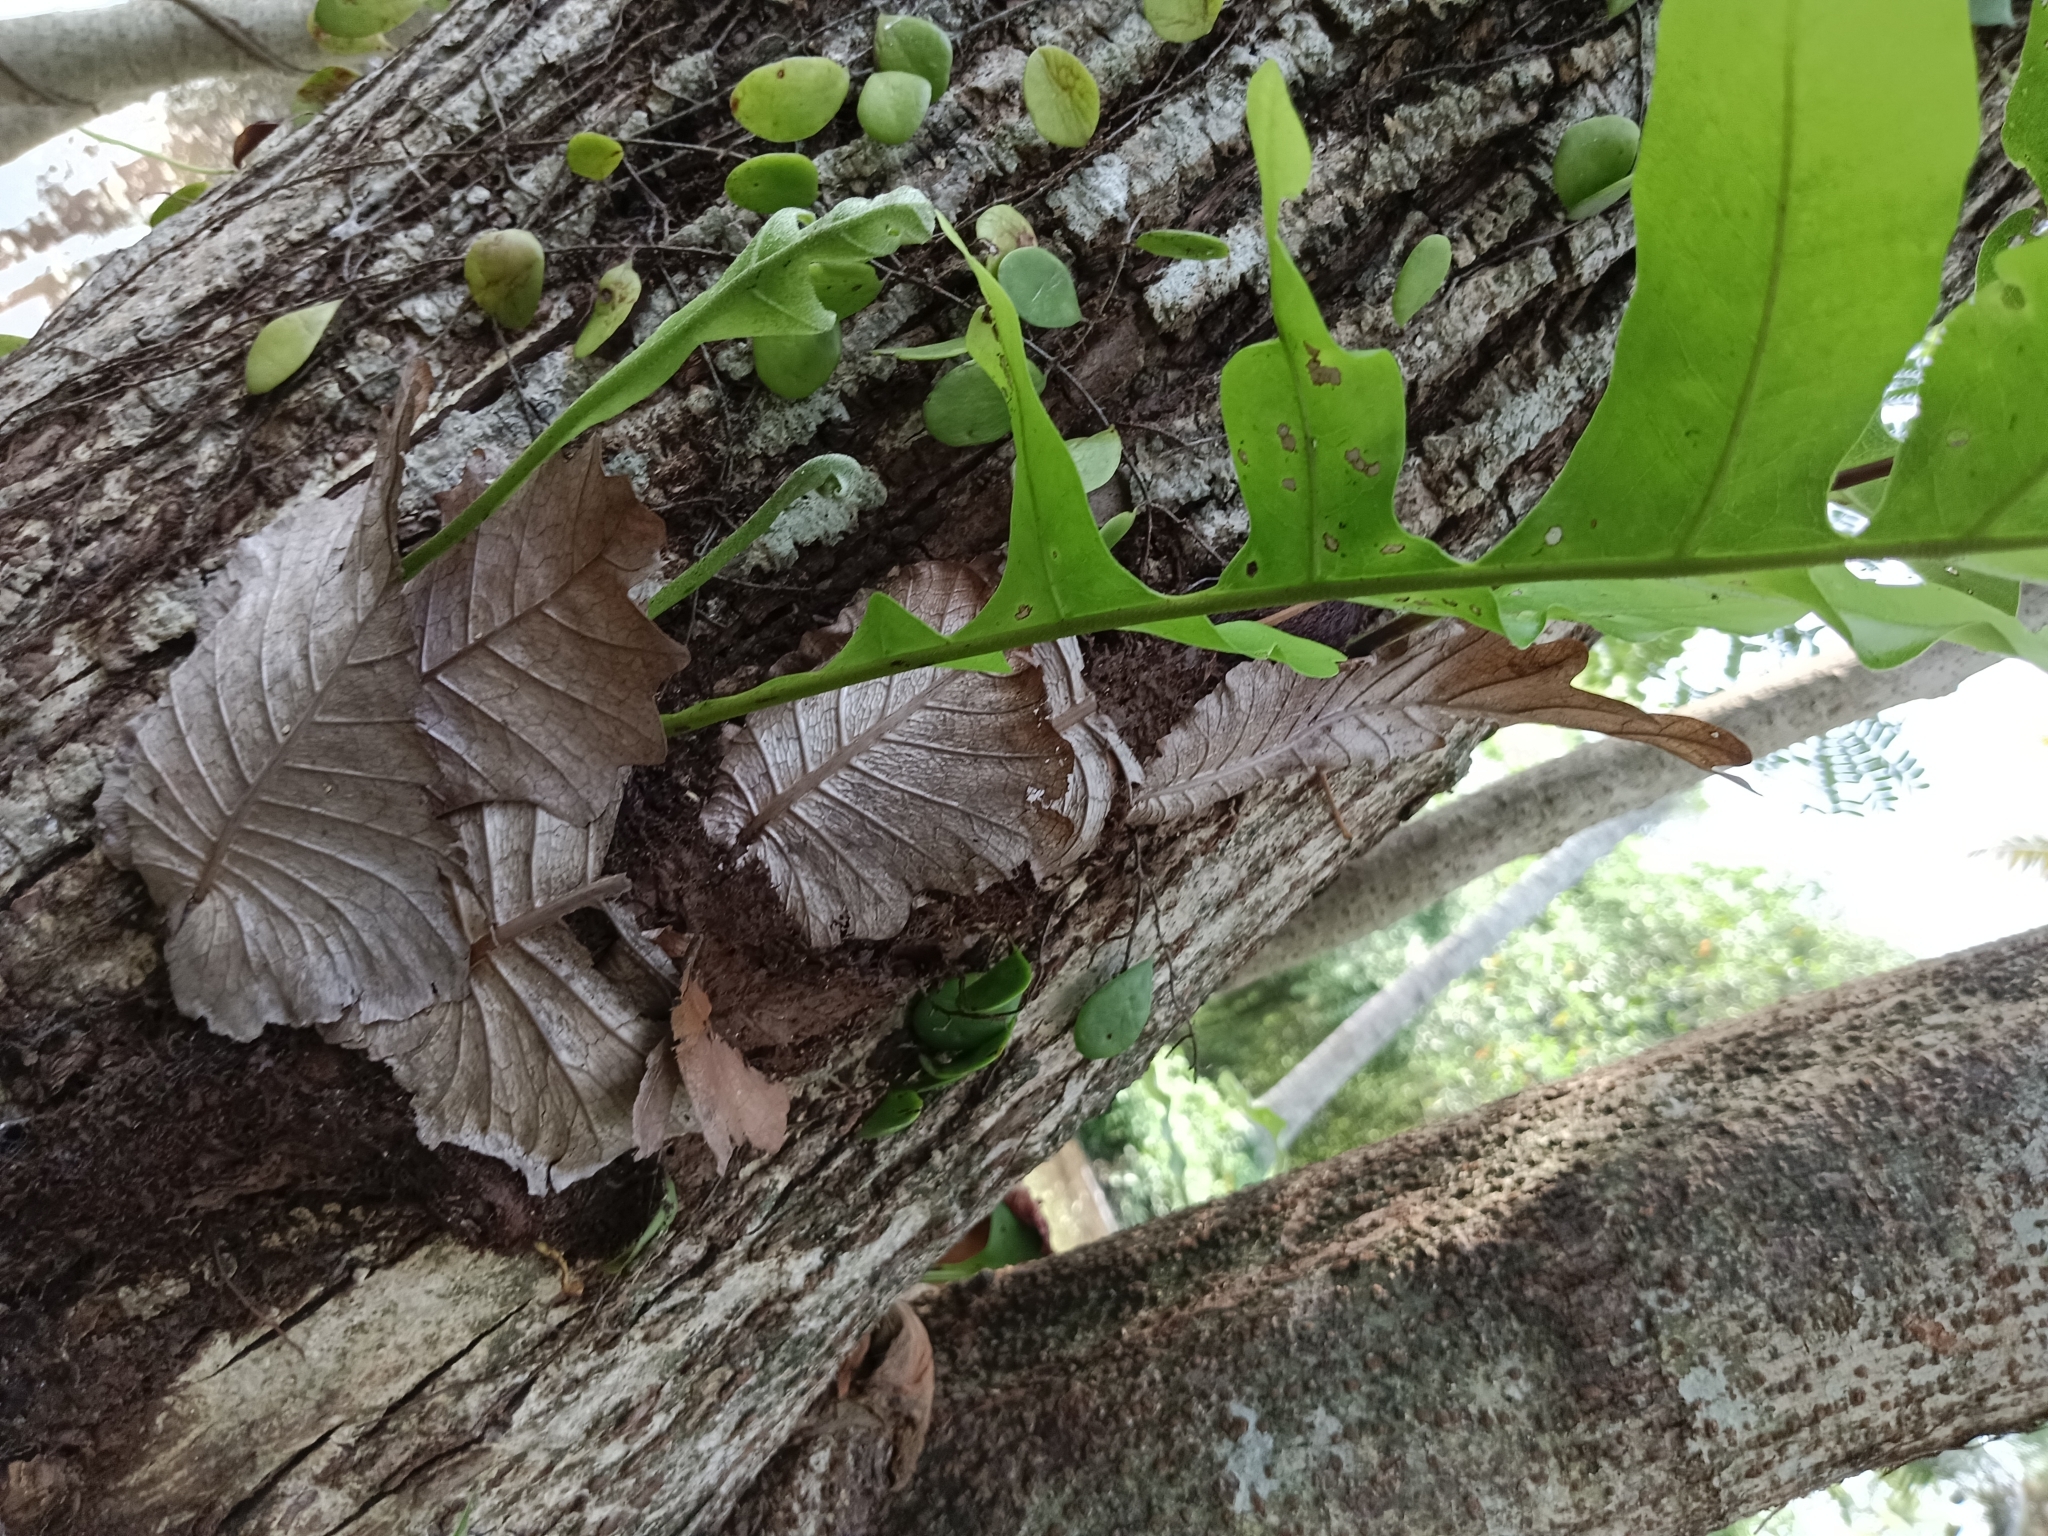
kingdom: Plantae
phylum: Tracheophyta
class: Polypodiopsida
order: Polypodiales
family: Polypodiaceae
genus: Drynaria
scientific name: Drynaria quercifolia
